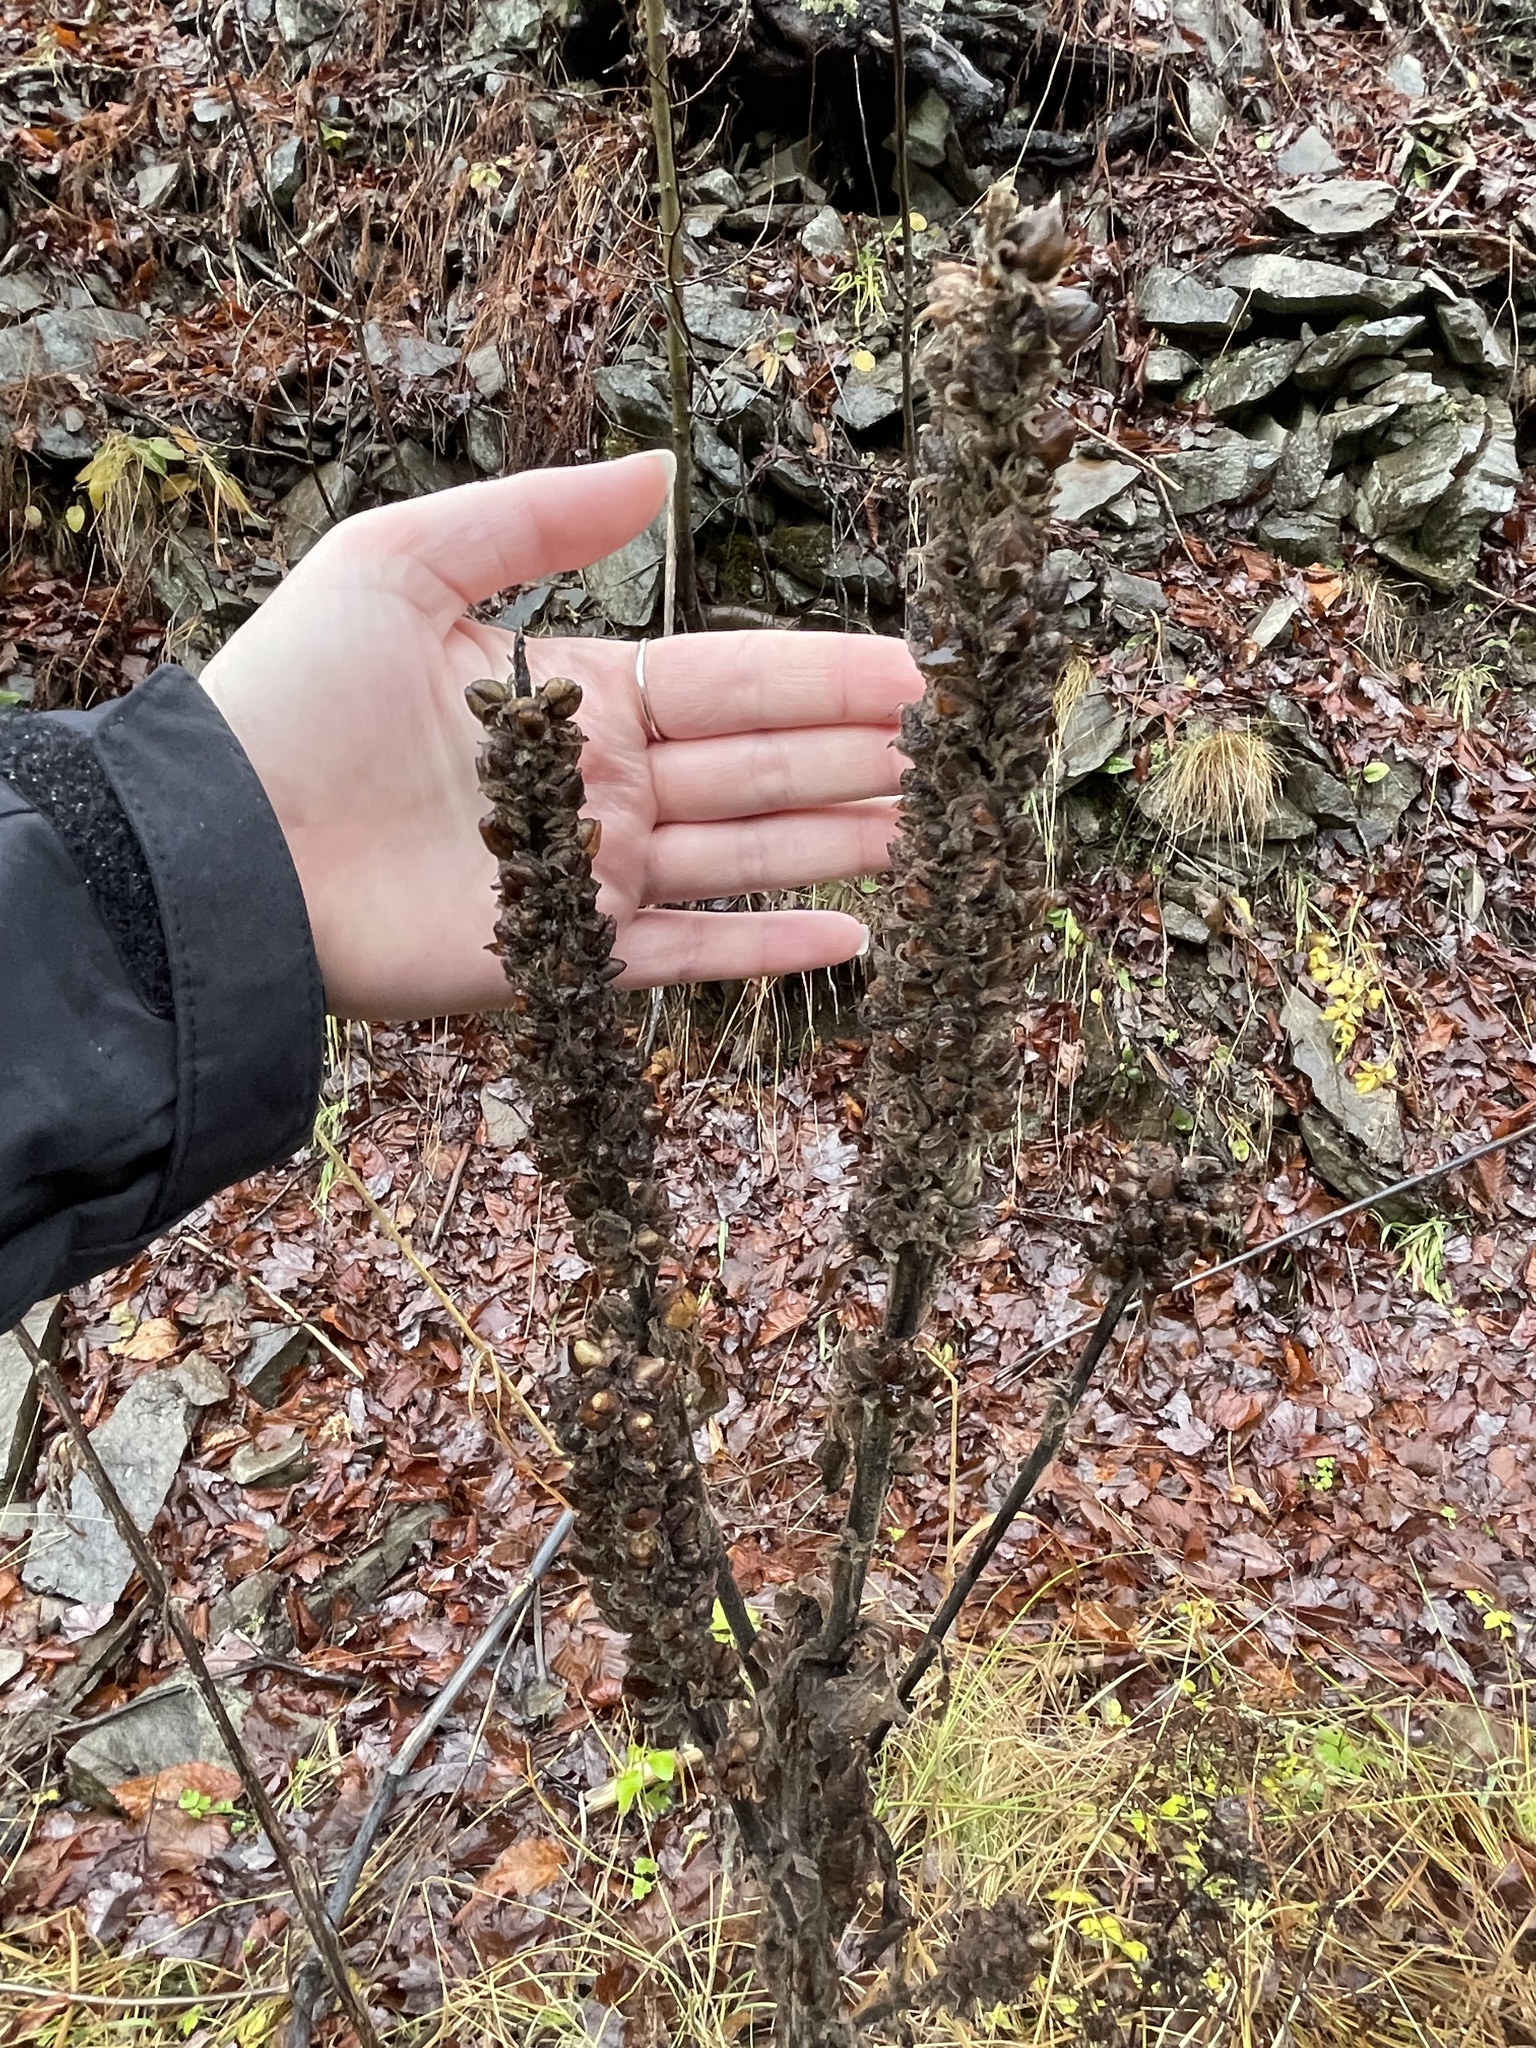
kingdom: Plantae
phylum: Tracheophyta
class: Magnoliopsida
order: Lamiales
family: Scrophulariaceae
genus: Verbascum
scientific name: Verbascum thapsus
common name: Common mullein
